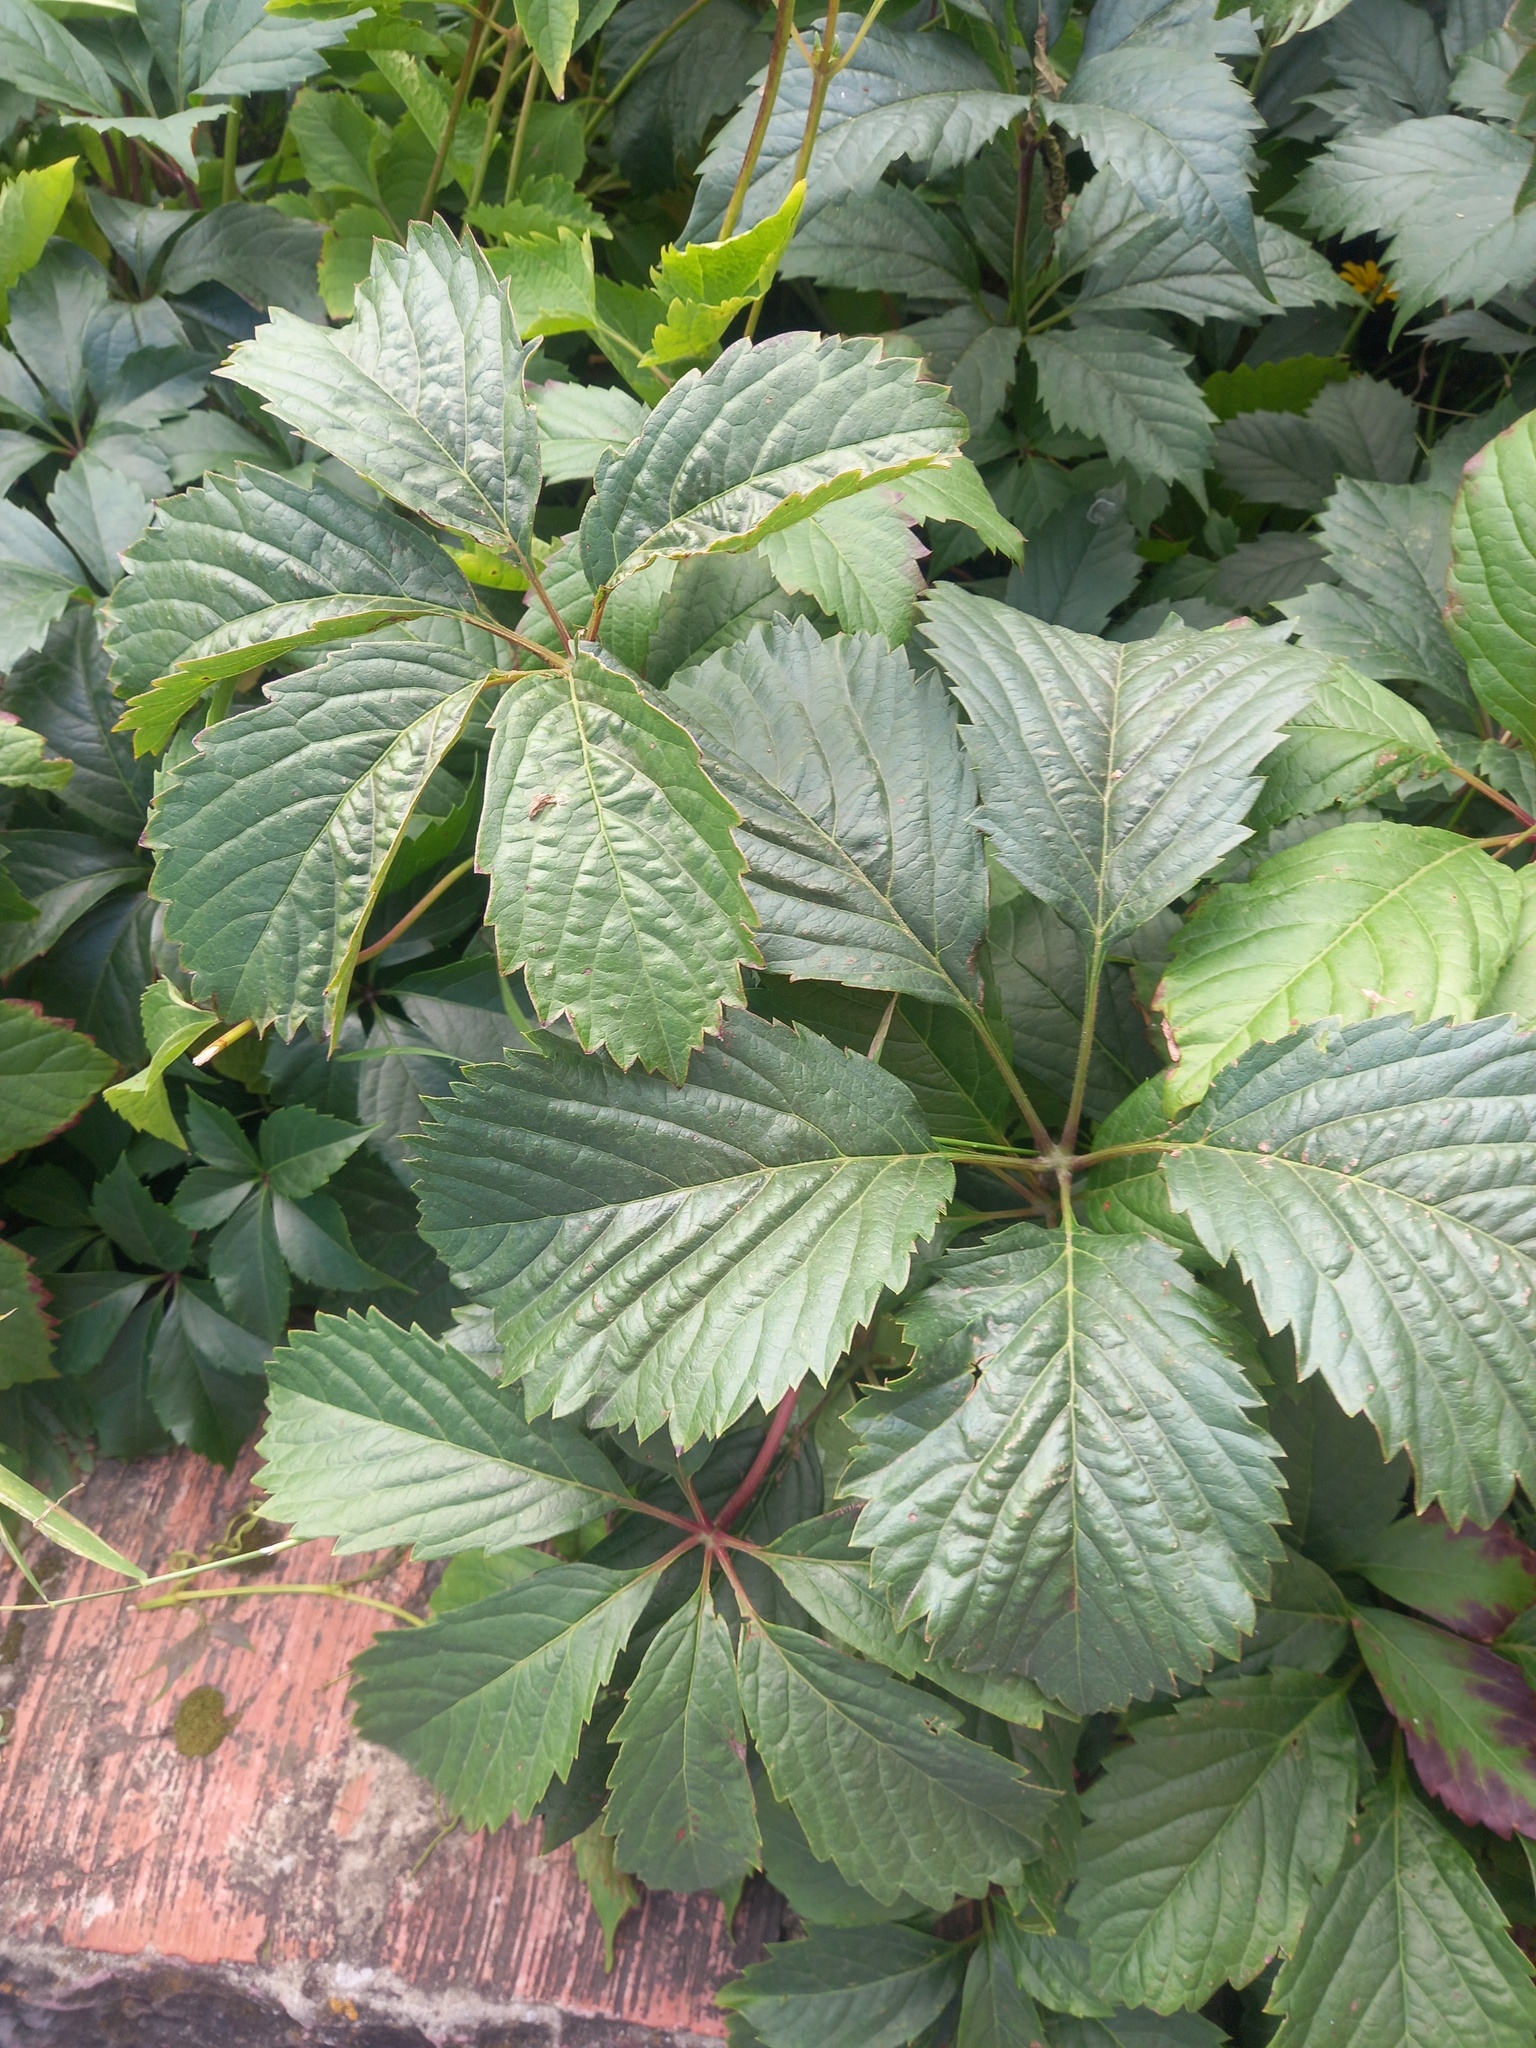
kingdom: Plantae
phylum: Tracheophyta
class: Magnoliopsida
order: Vitales
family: Vitaceae
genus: Parthenocissus
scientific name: Parthenocissus inserta
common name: False virginia-creeper
